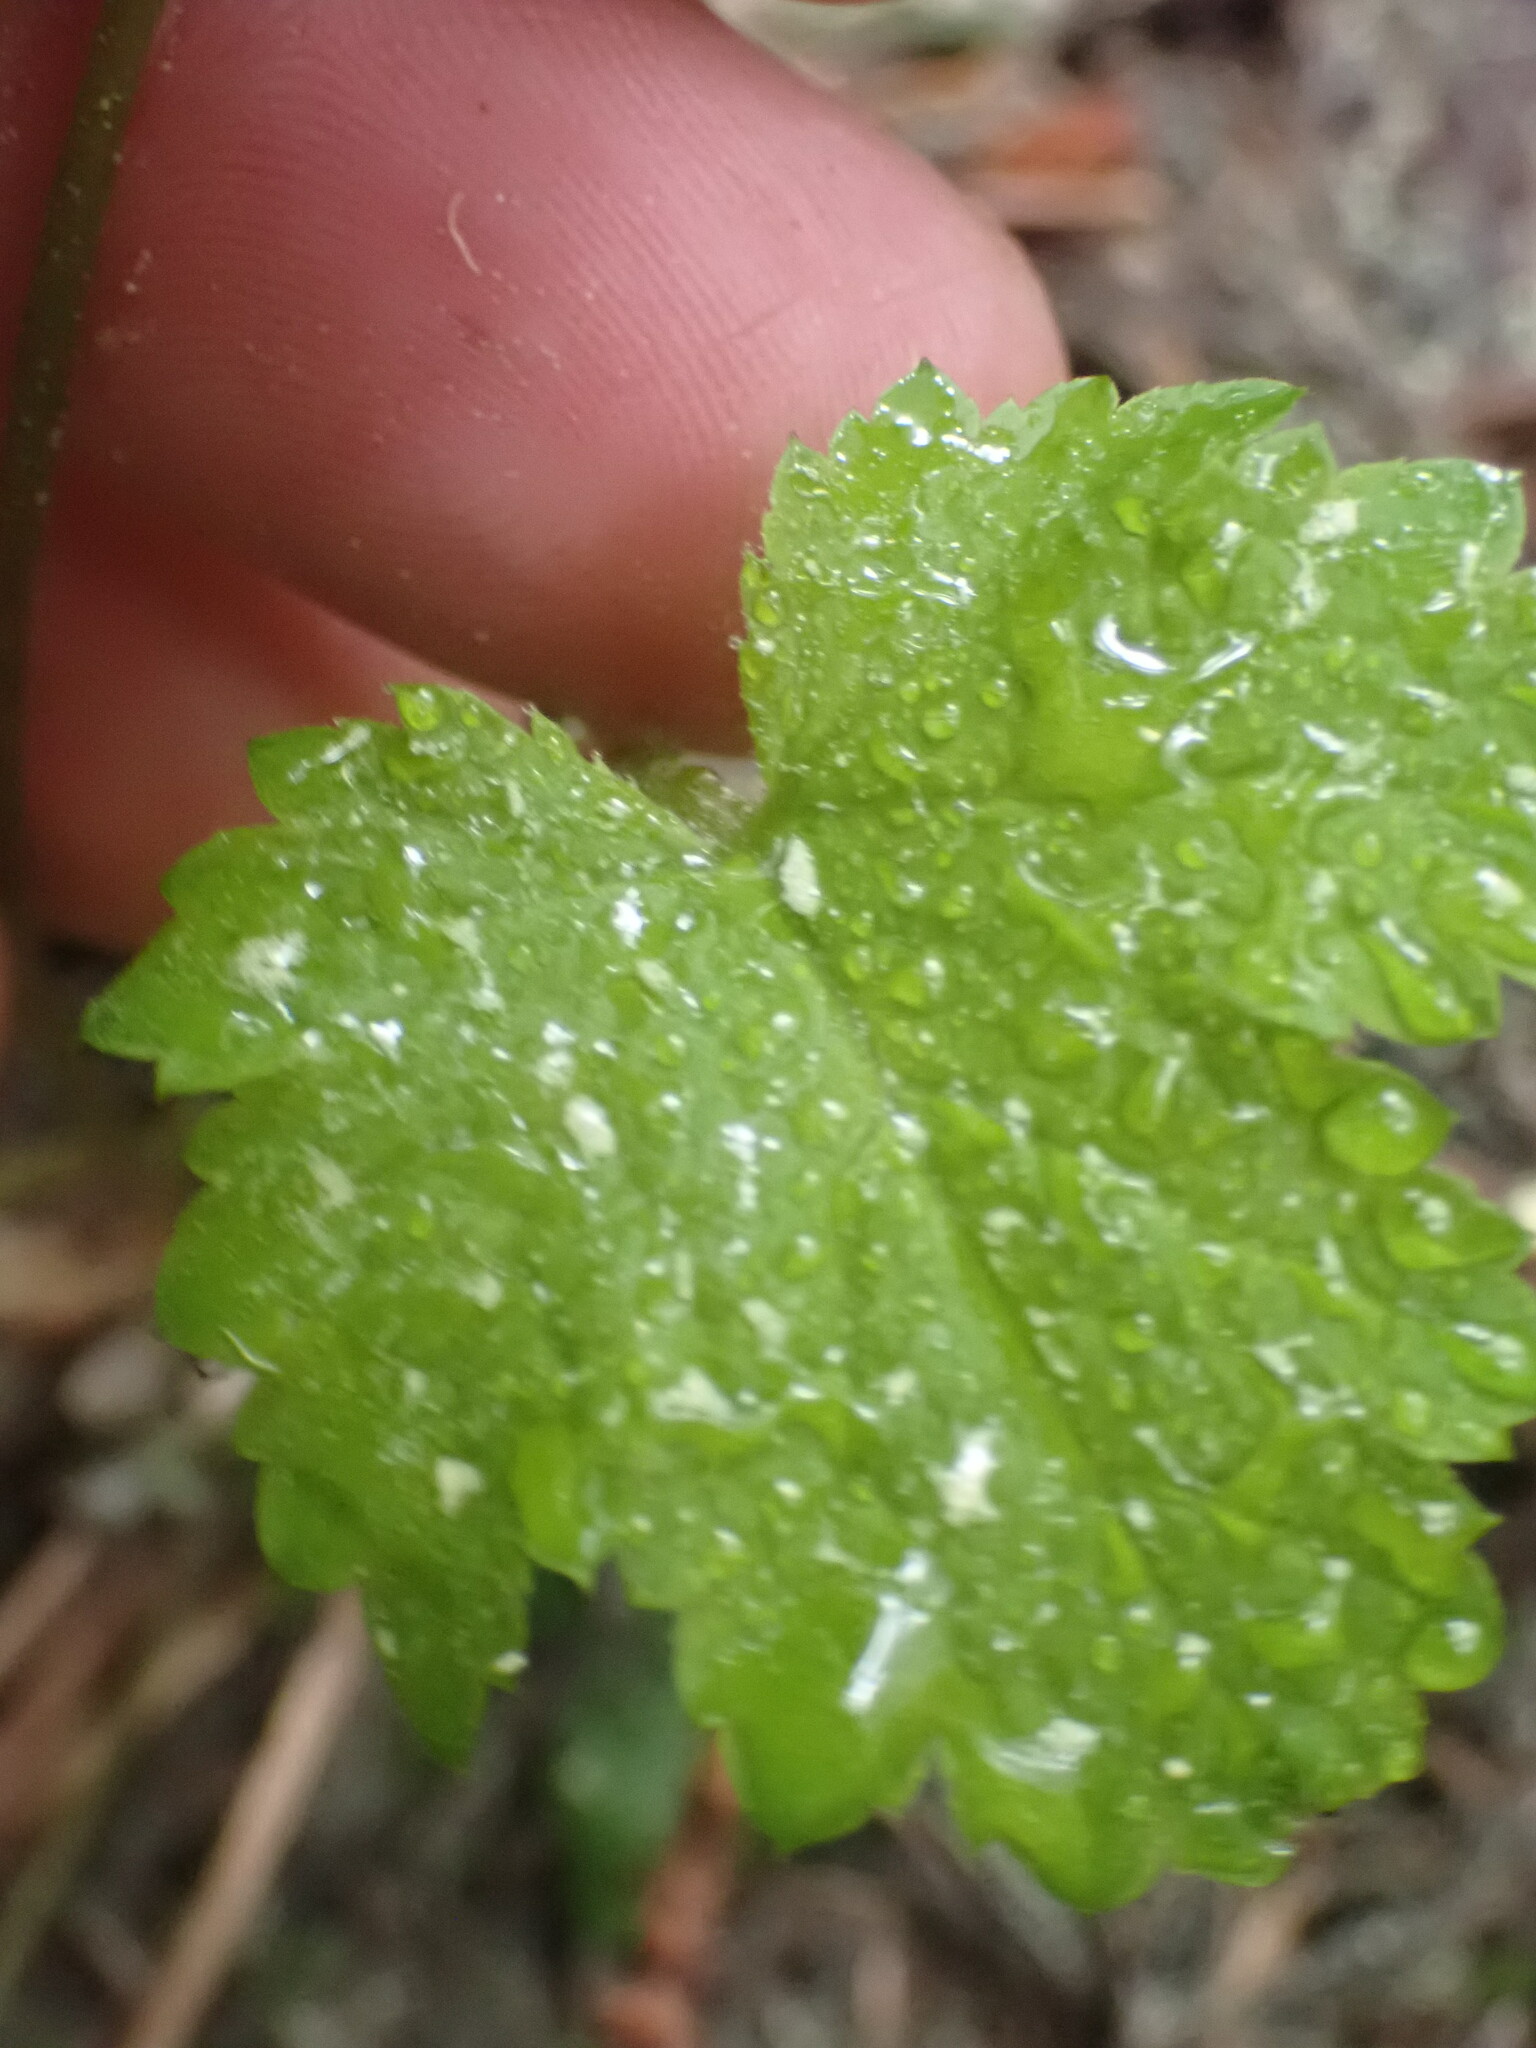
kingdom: Plantae
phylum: Tracheophyta
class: Magnoliopsida
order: Saxifragales
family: Saxifragaceae
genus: Tiarella
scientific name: Tiarella trifoliata
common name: Sugar-scoop
